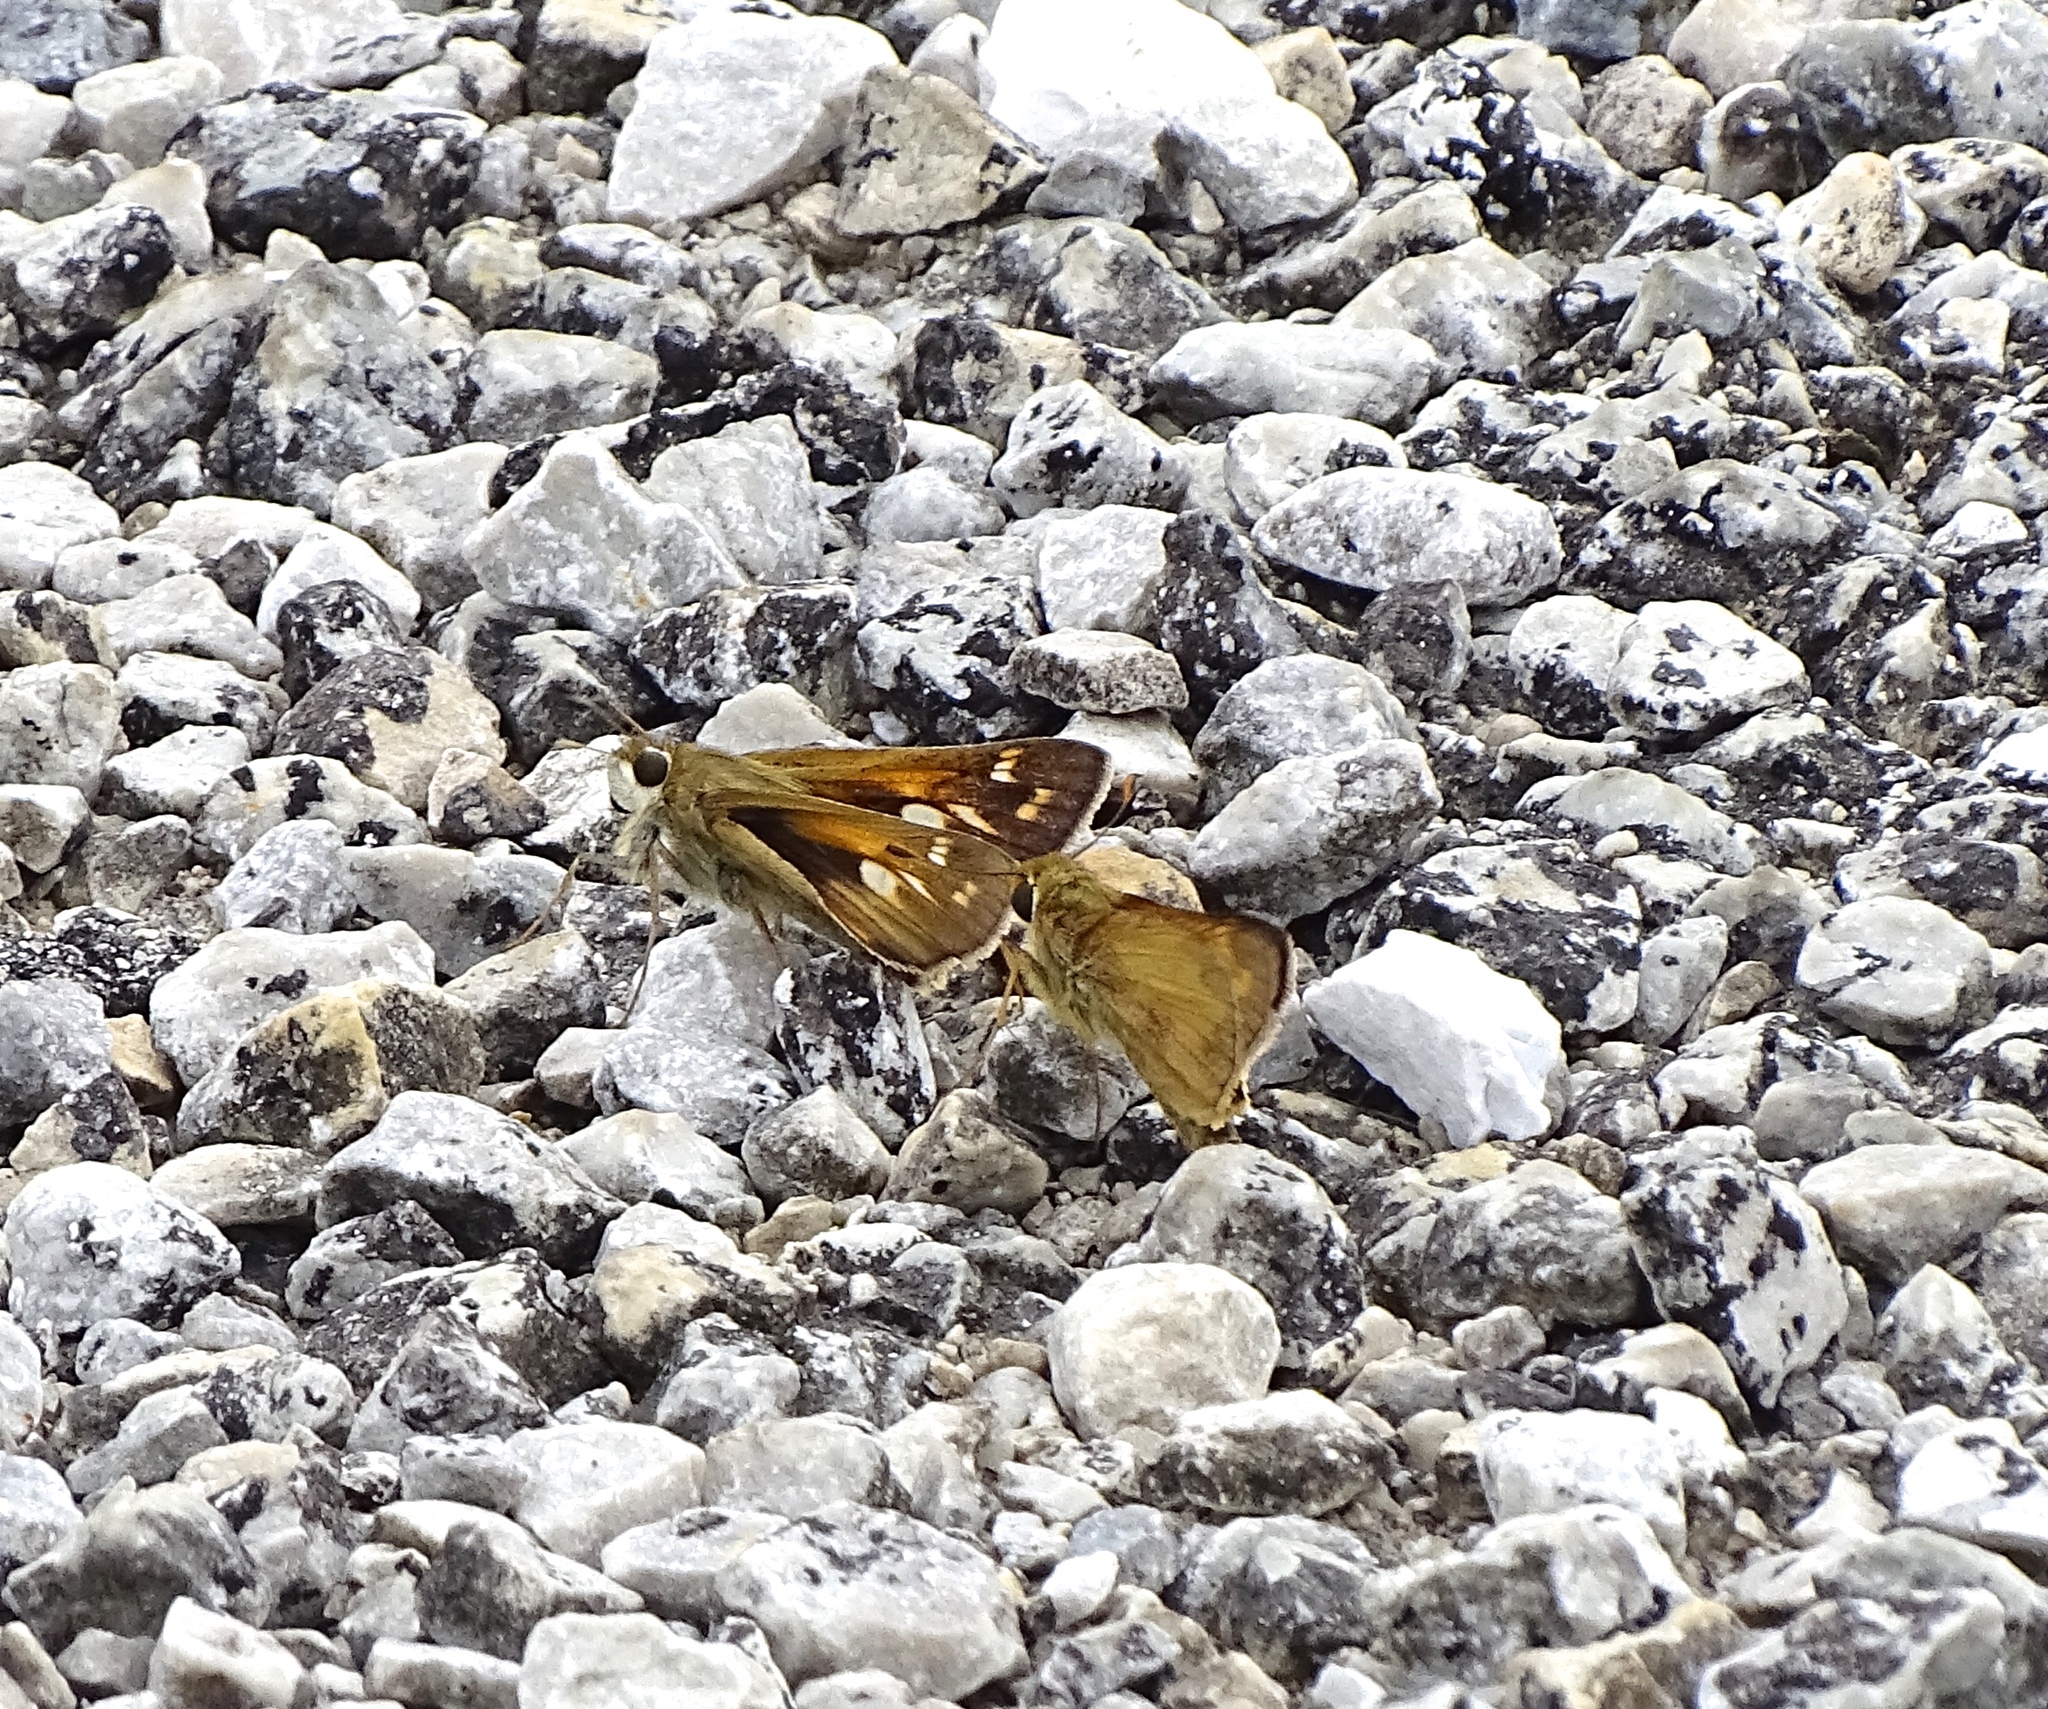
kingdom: Animalia
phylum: Arthropoda
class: Insecta
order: Lepidoptera
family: Hesperiidae
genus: Atalopedes
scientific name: Atalopedes
